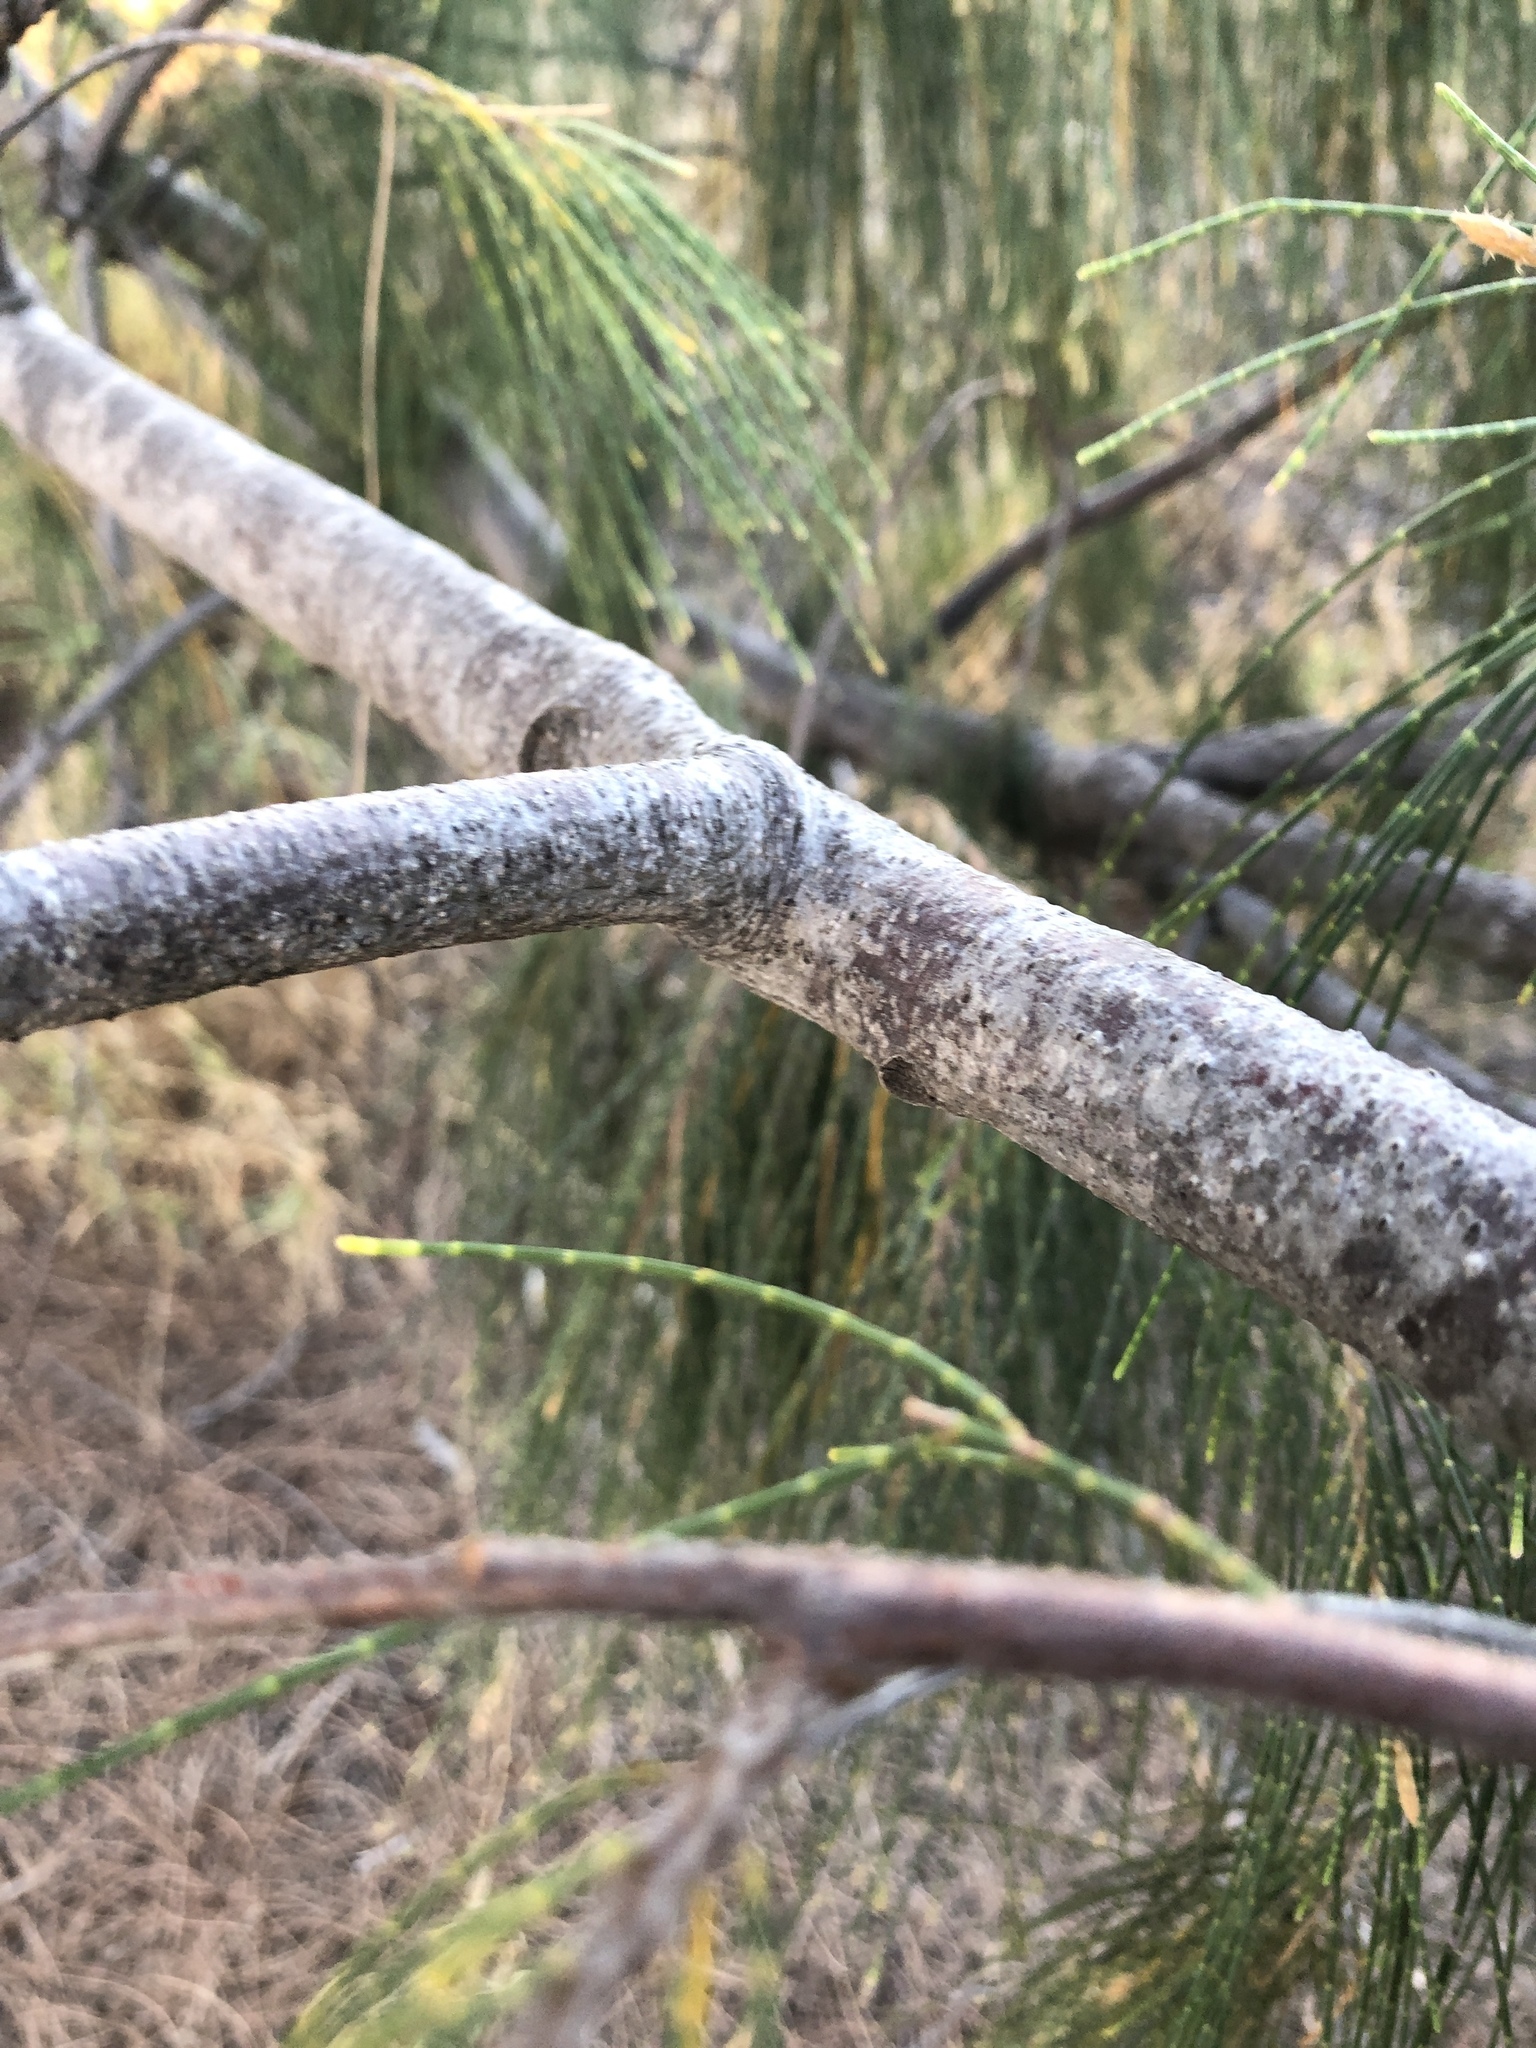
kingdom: Plantae
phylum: Tracheophyta
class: Magnoliopsida
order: Fagales
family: Casuarinaceae
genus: Casuarina
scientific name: Casuarina equisetifolia
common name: Beach sheoak
